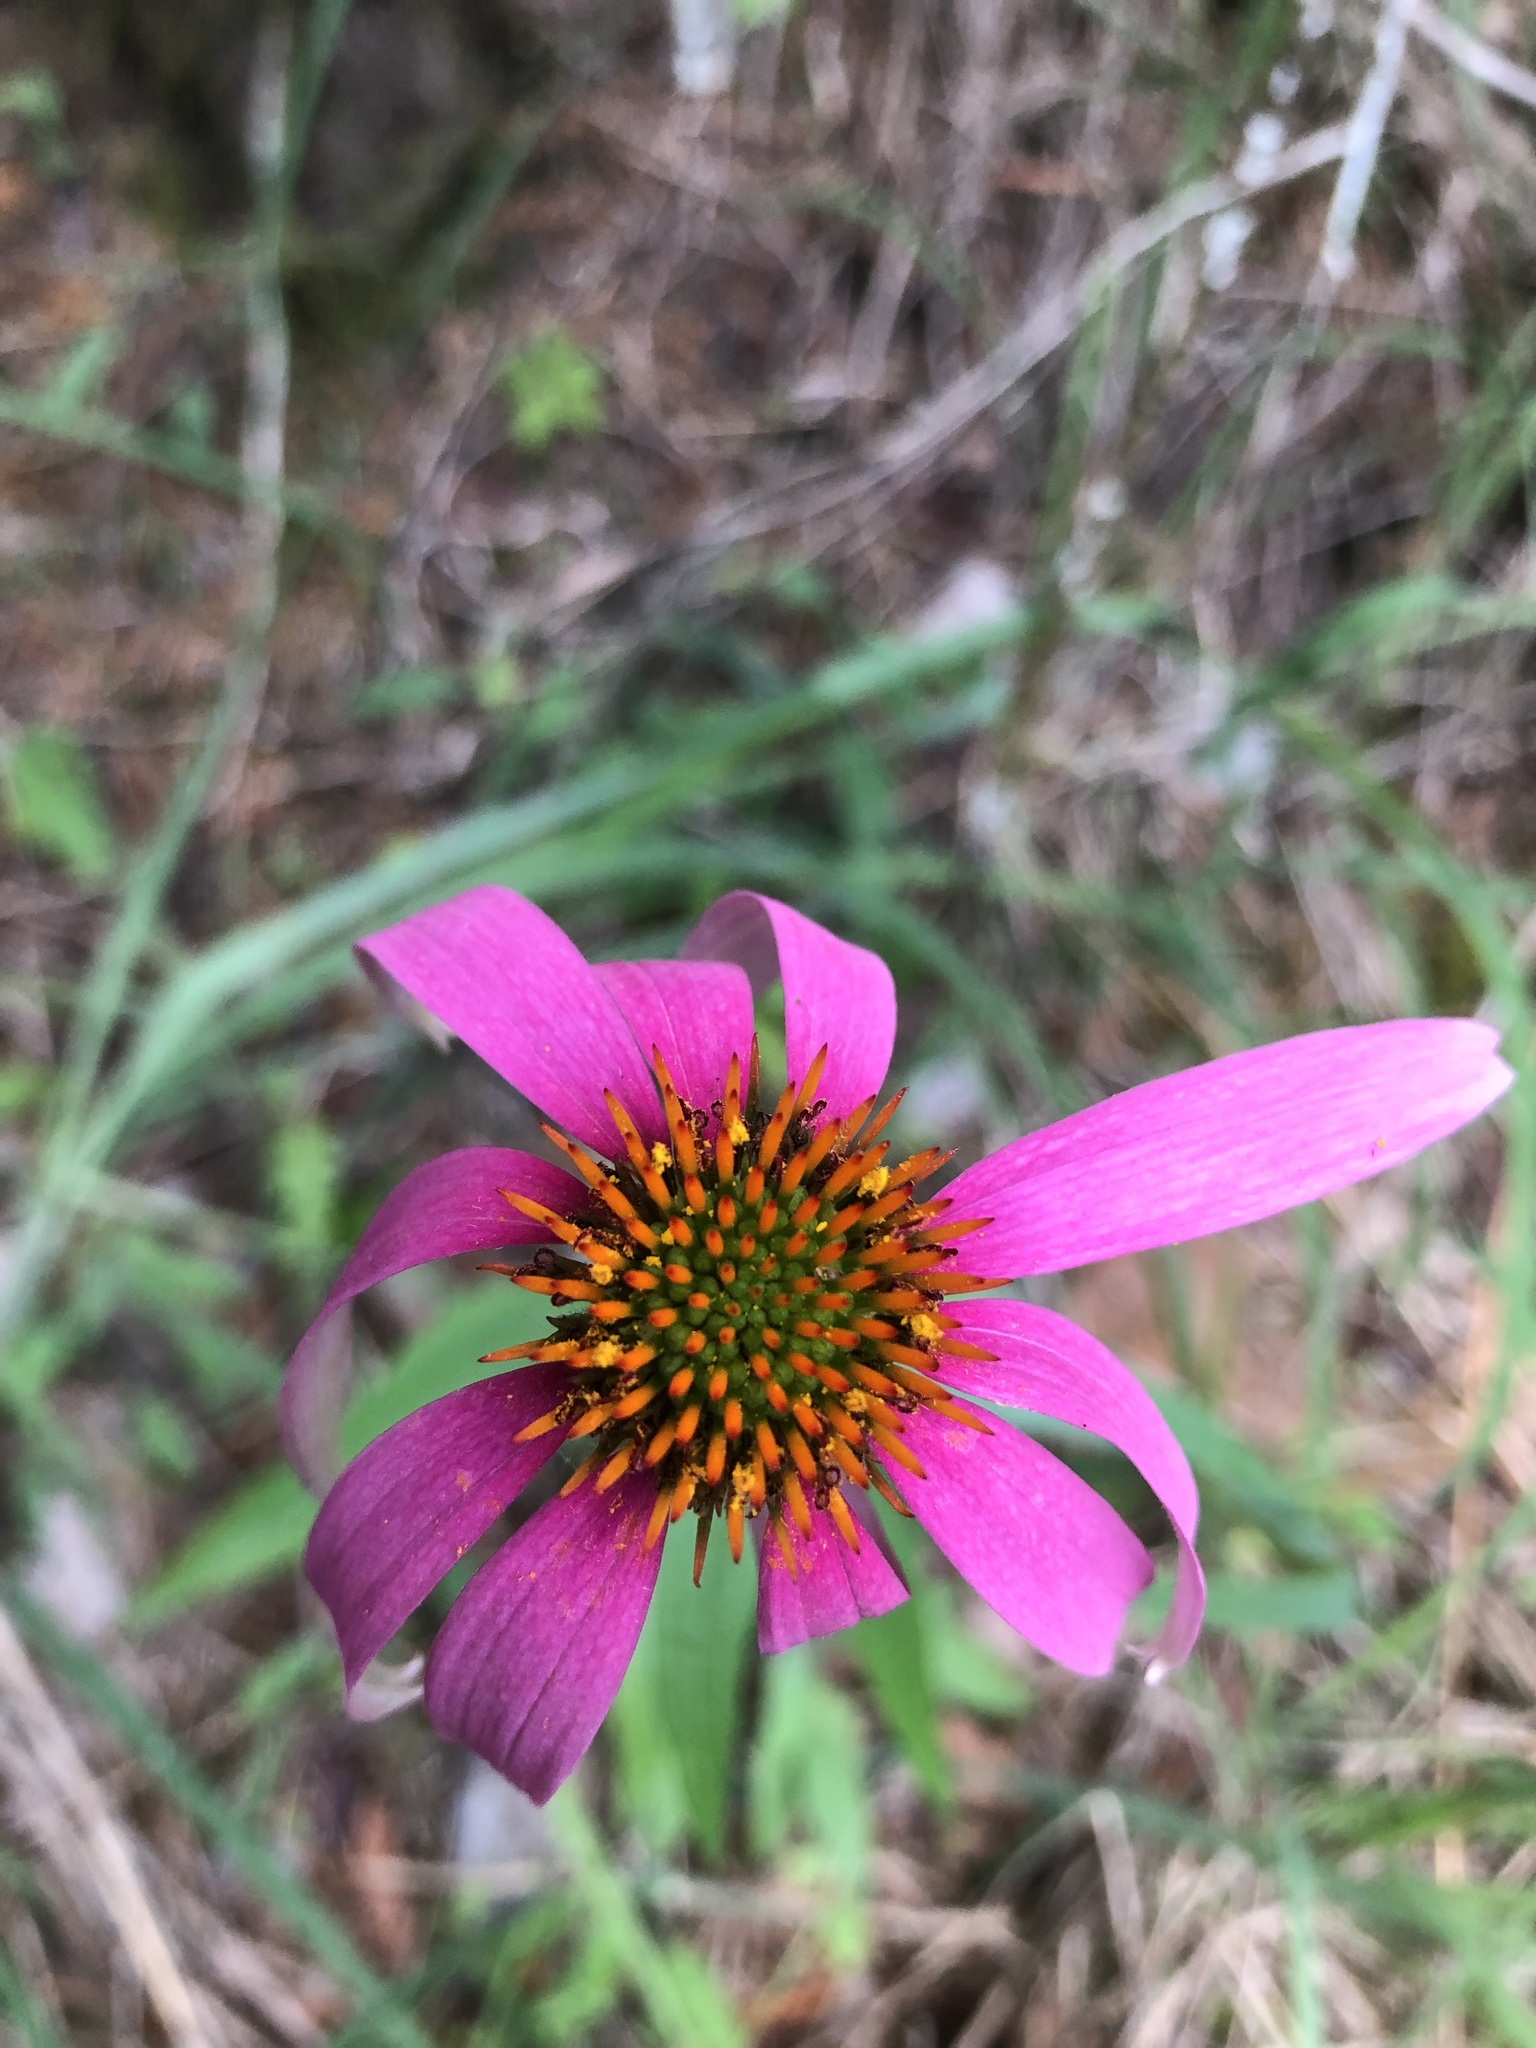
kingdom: Plantae
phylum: Tracheophyta
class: Magnoliopsida
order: Asterales
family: Asteraceae
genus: Echinacea
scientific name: Echinacea purpurea
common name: Broad-leaved purple coneflower
